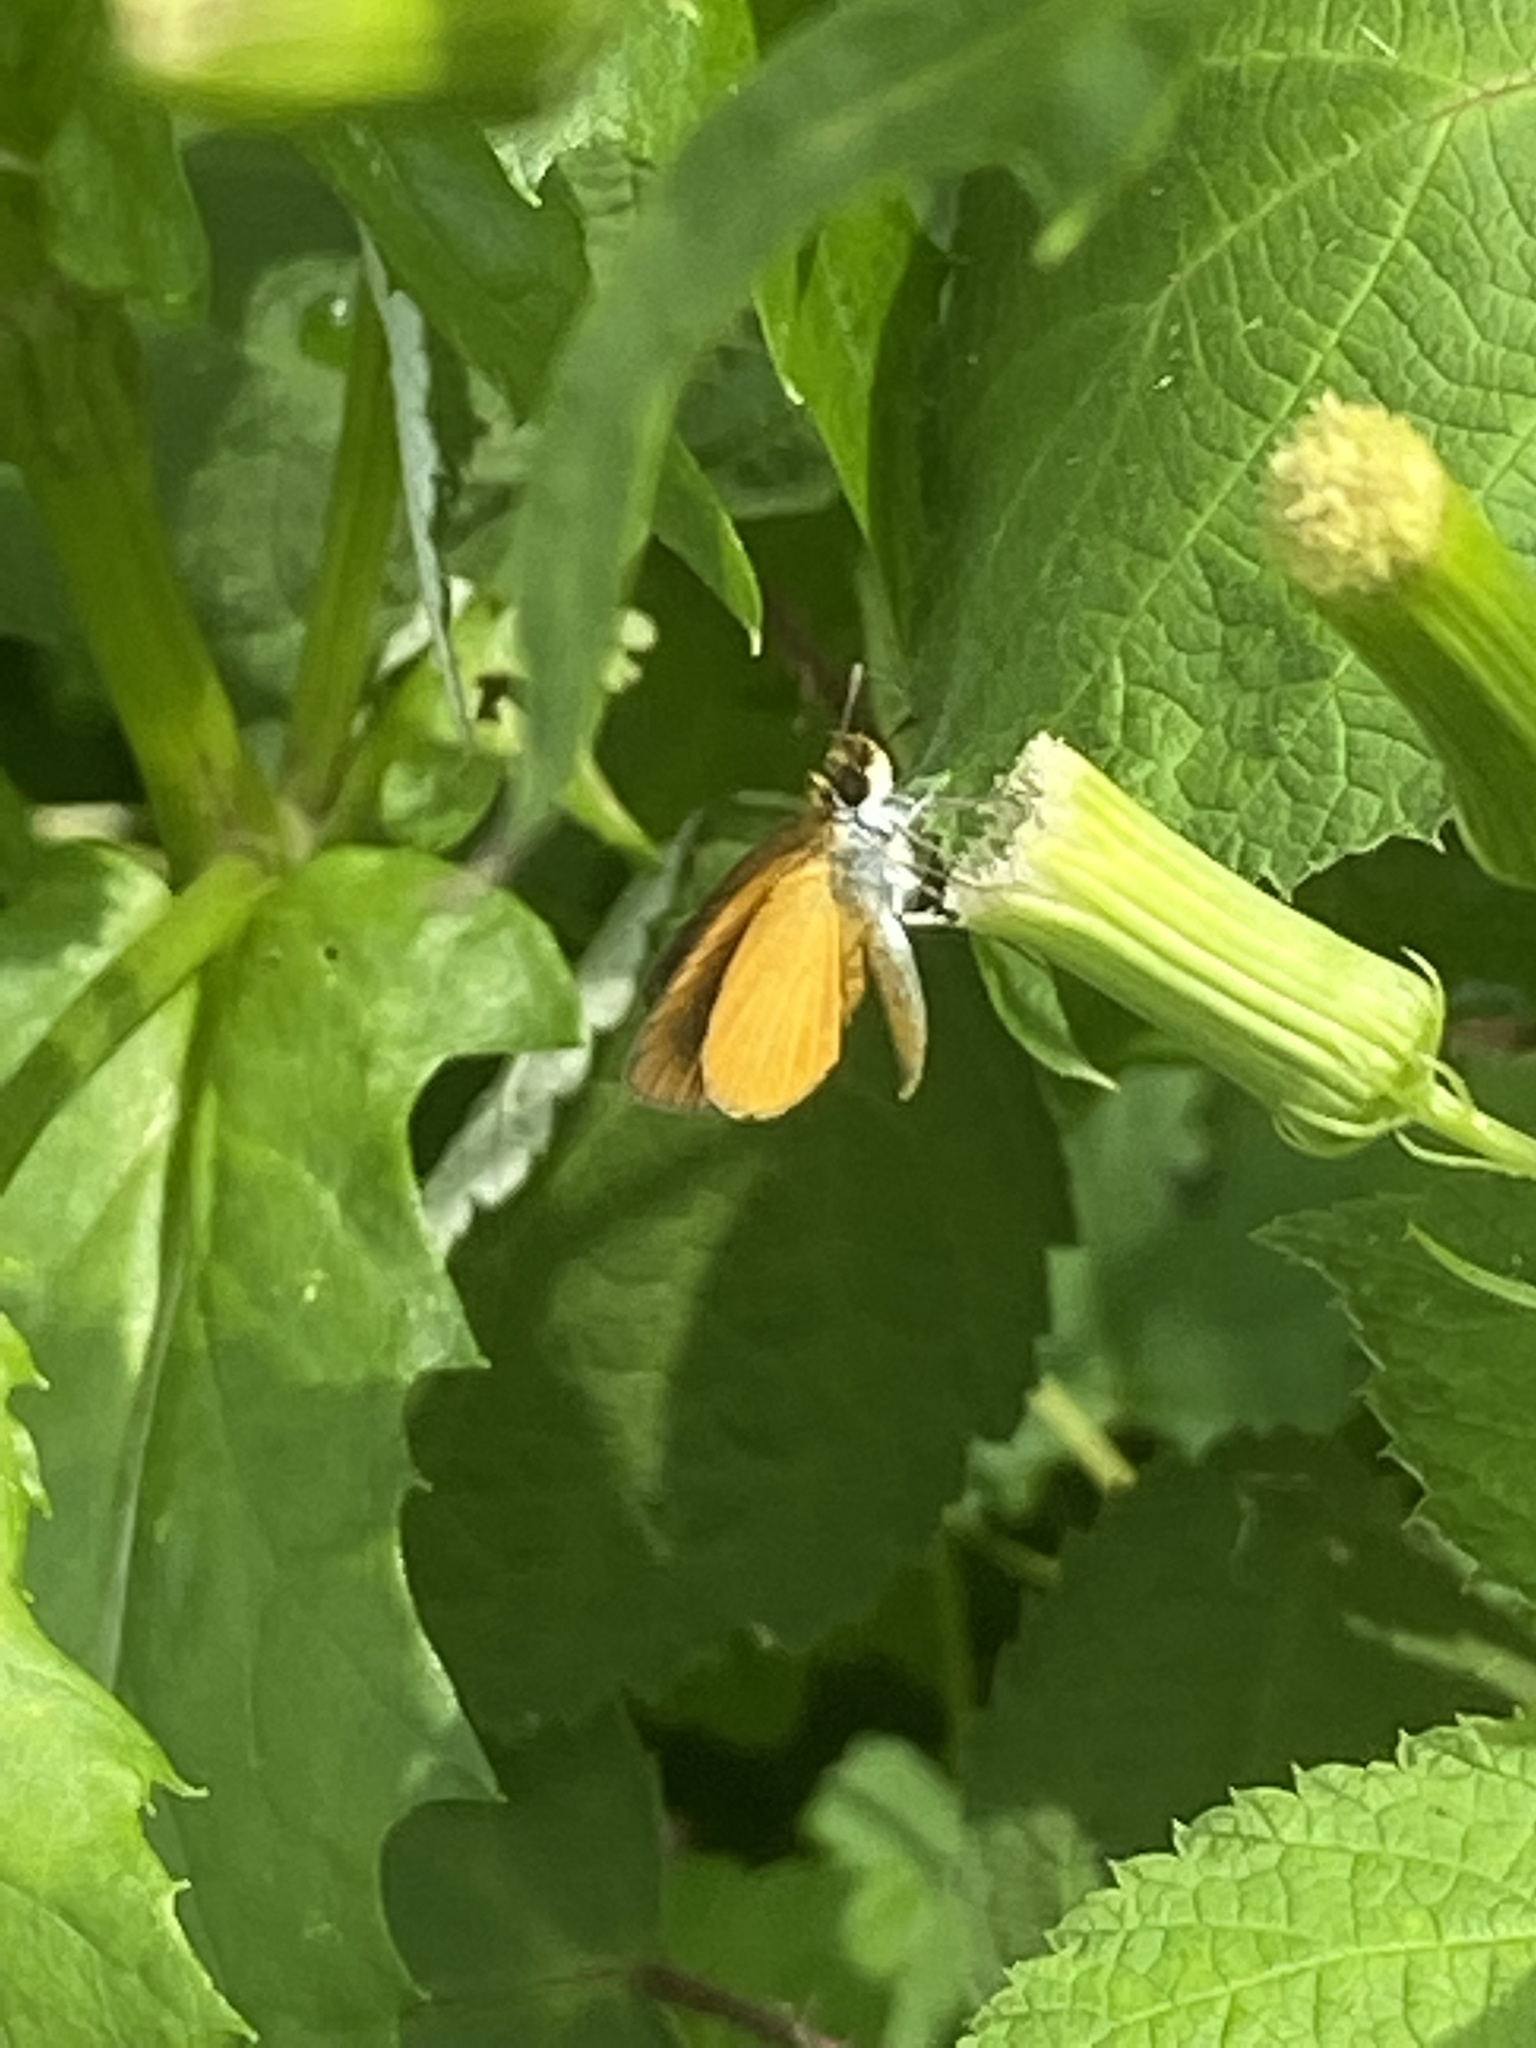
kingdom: Animalia
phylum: Arthropoda
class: Insecta
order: Lepidoptera
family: Hesperiidae
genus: Ancyloxypha
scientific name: Ancyloxypha numitor
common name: Least skipper
